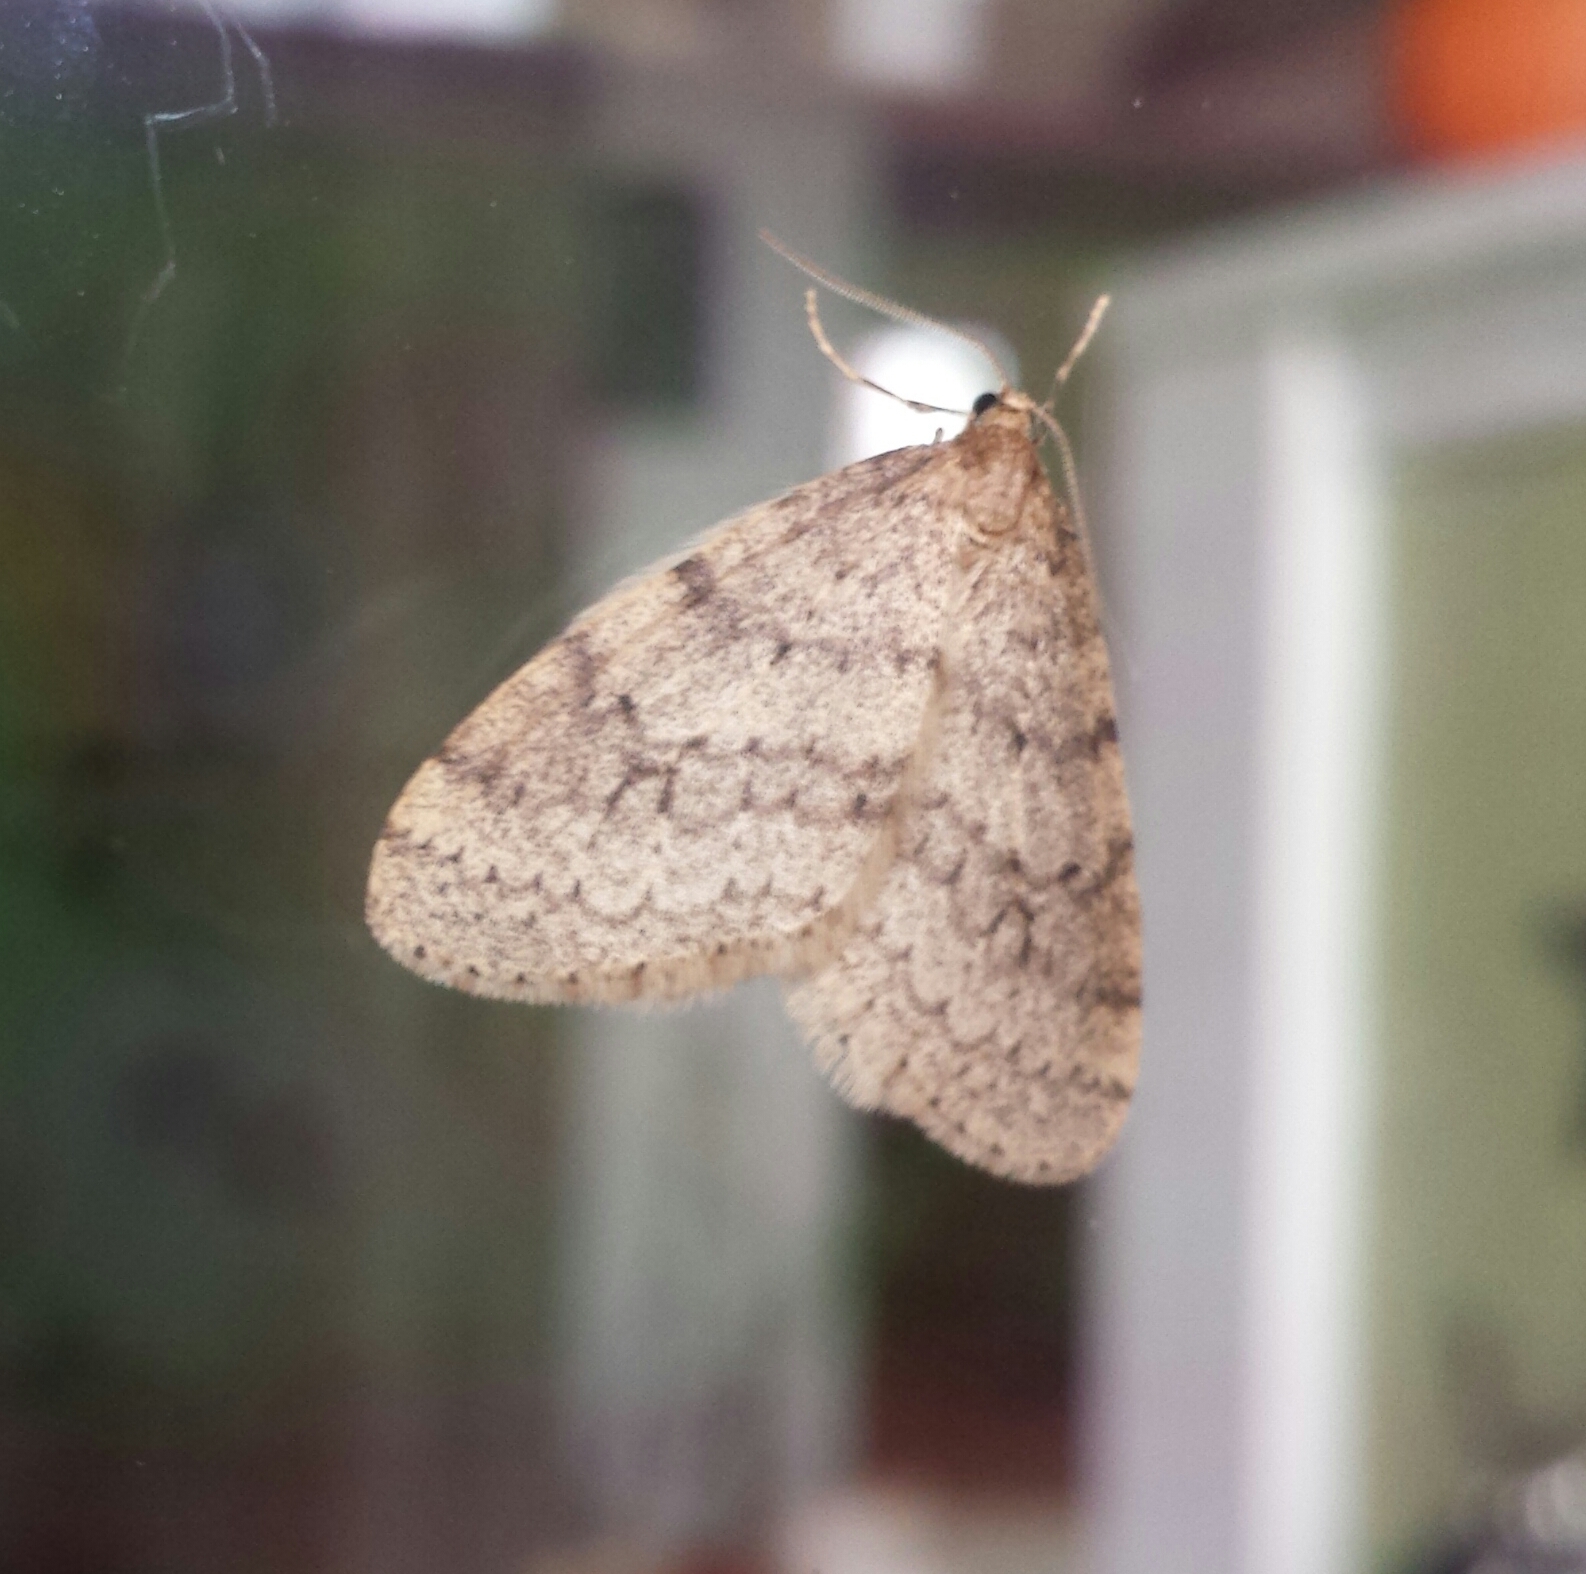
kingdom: Animalia
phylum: Arthropoda
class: Insecta
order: Lepidoptera
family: Geometridae
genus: Operophtera
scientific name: Operophtera bruceata
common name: Bruce spanworm
